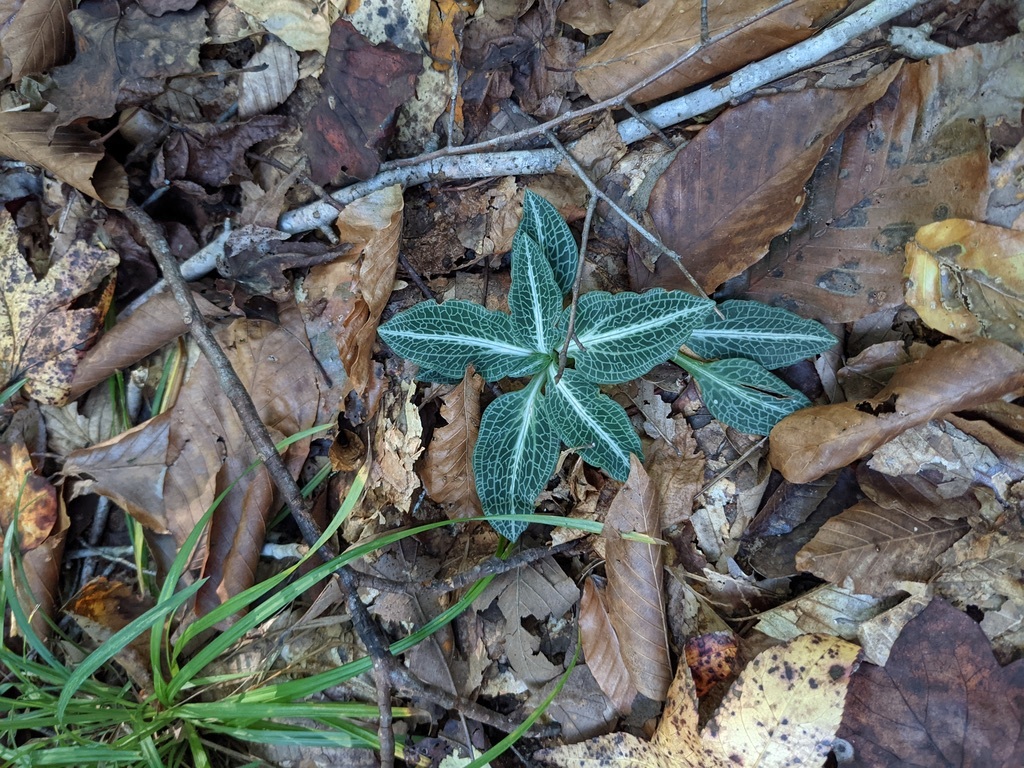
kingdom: Plantae
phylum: Tracheophyta
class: Liliopsida
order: Asparagales
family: Orchidaceae
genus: Goodyera
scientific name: Goodyera pubescens
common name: Downy rattlesnake-plantain
